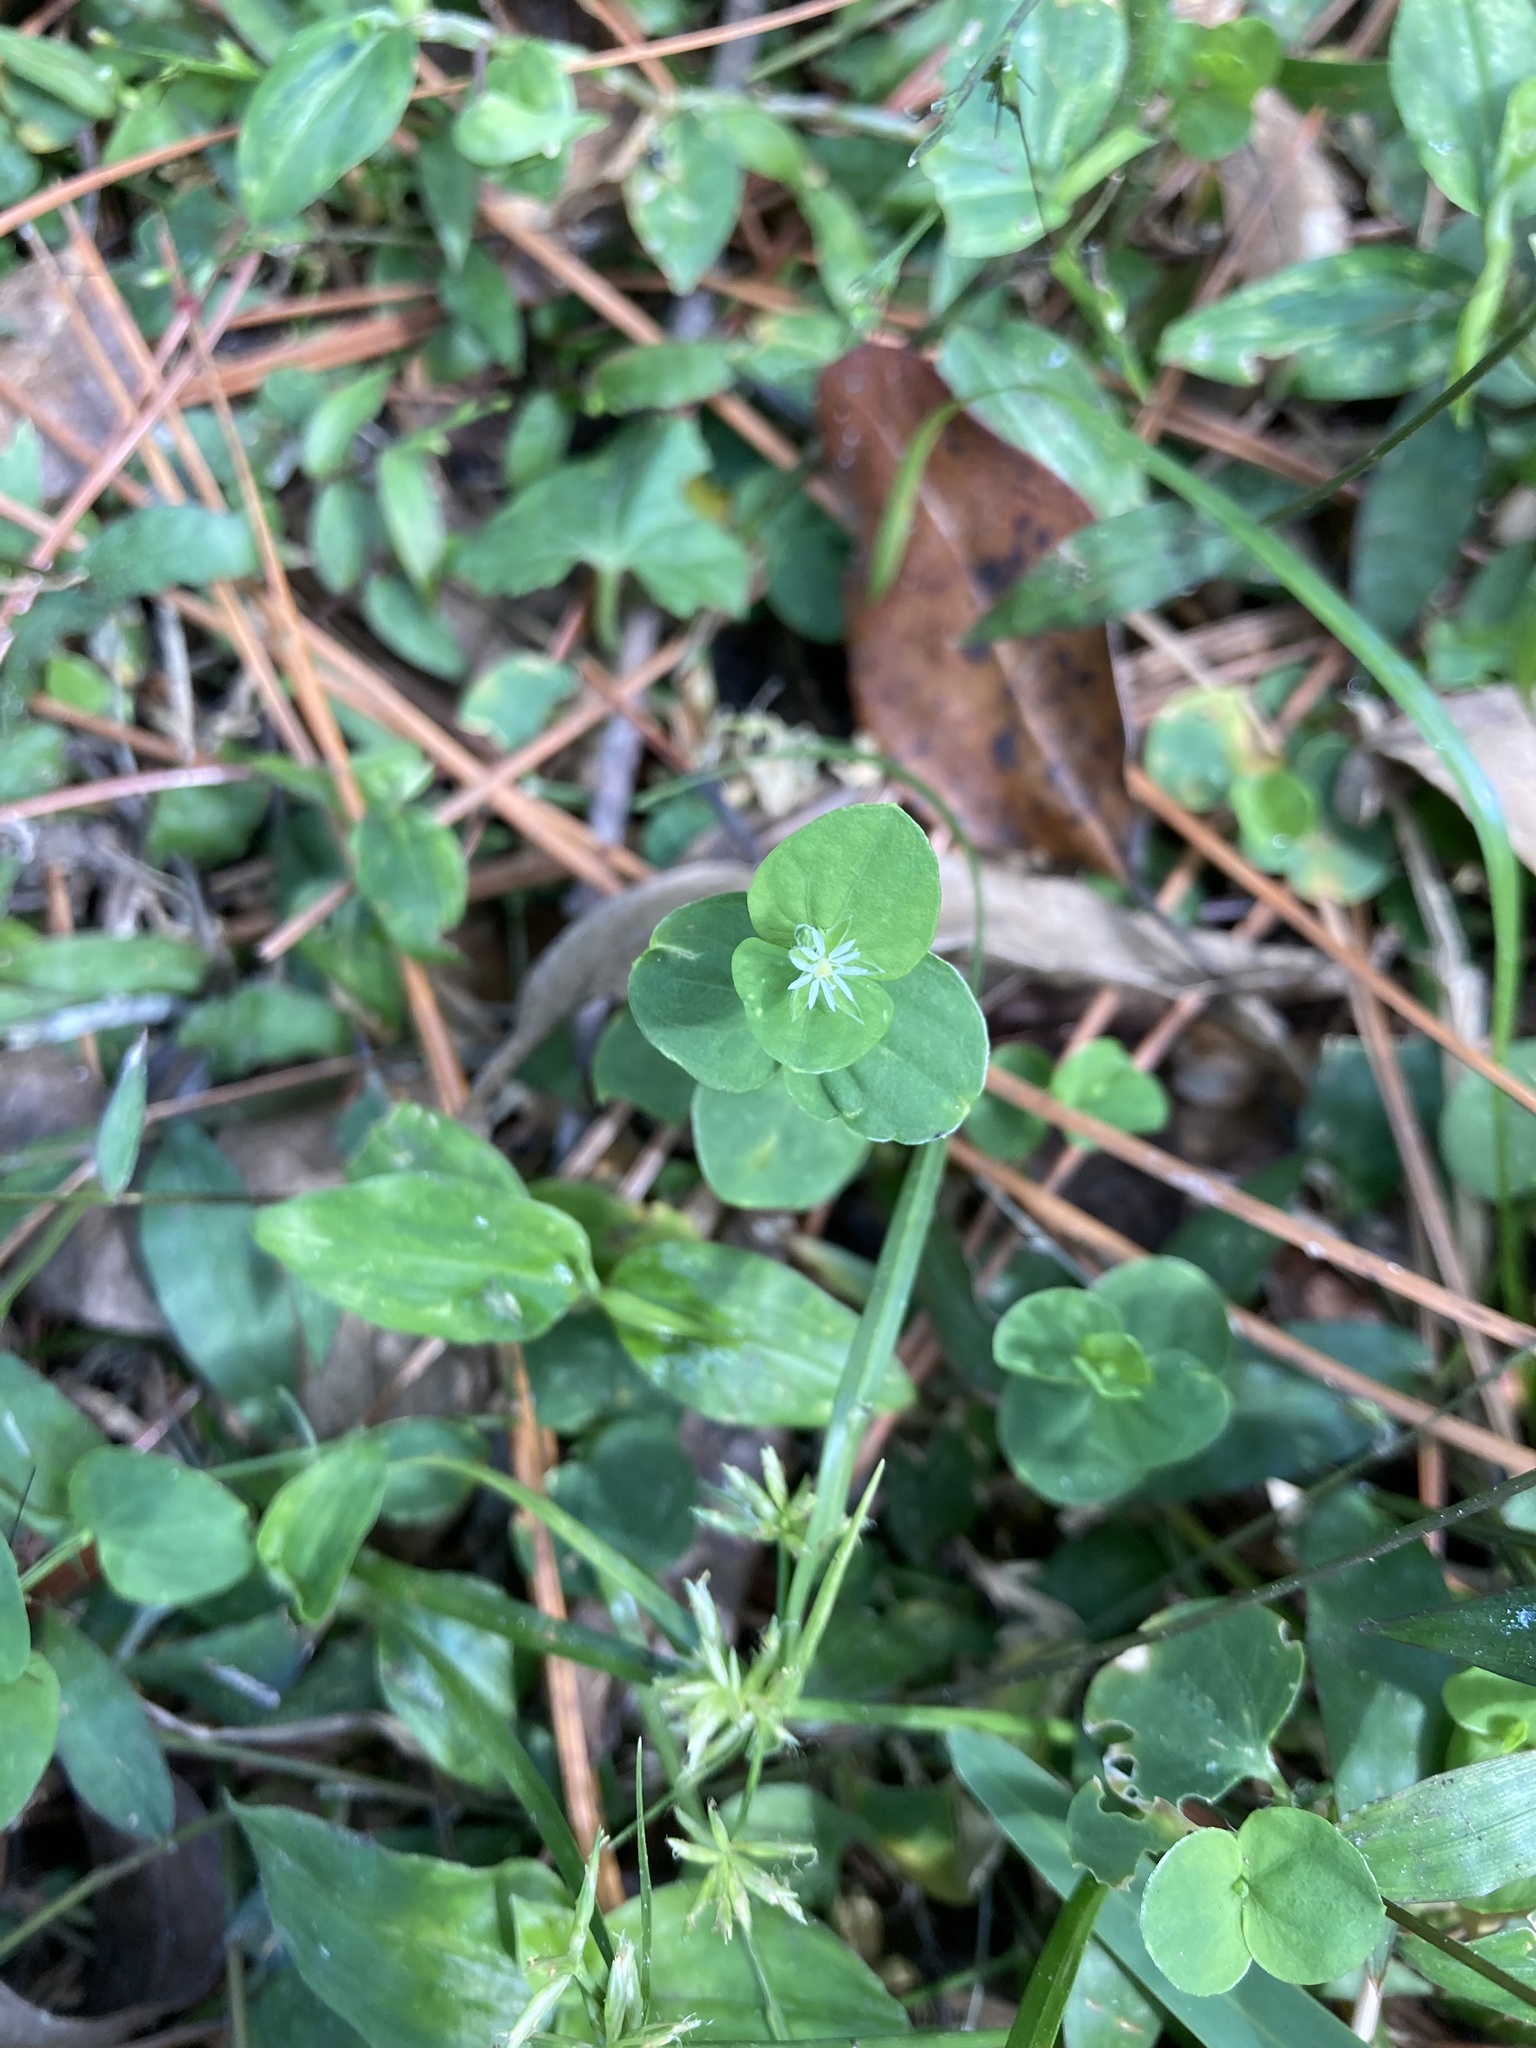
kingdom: Plantae
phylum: Tracheophyta
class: Magnoliopsida
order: Caryophyllales
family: Caryophyllaceae
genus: Drymaria
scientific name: Drymaria cordata
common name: Whitesnow
